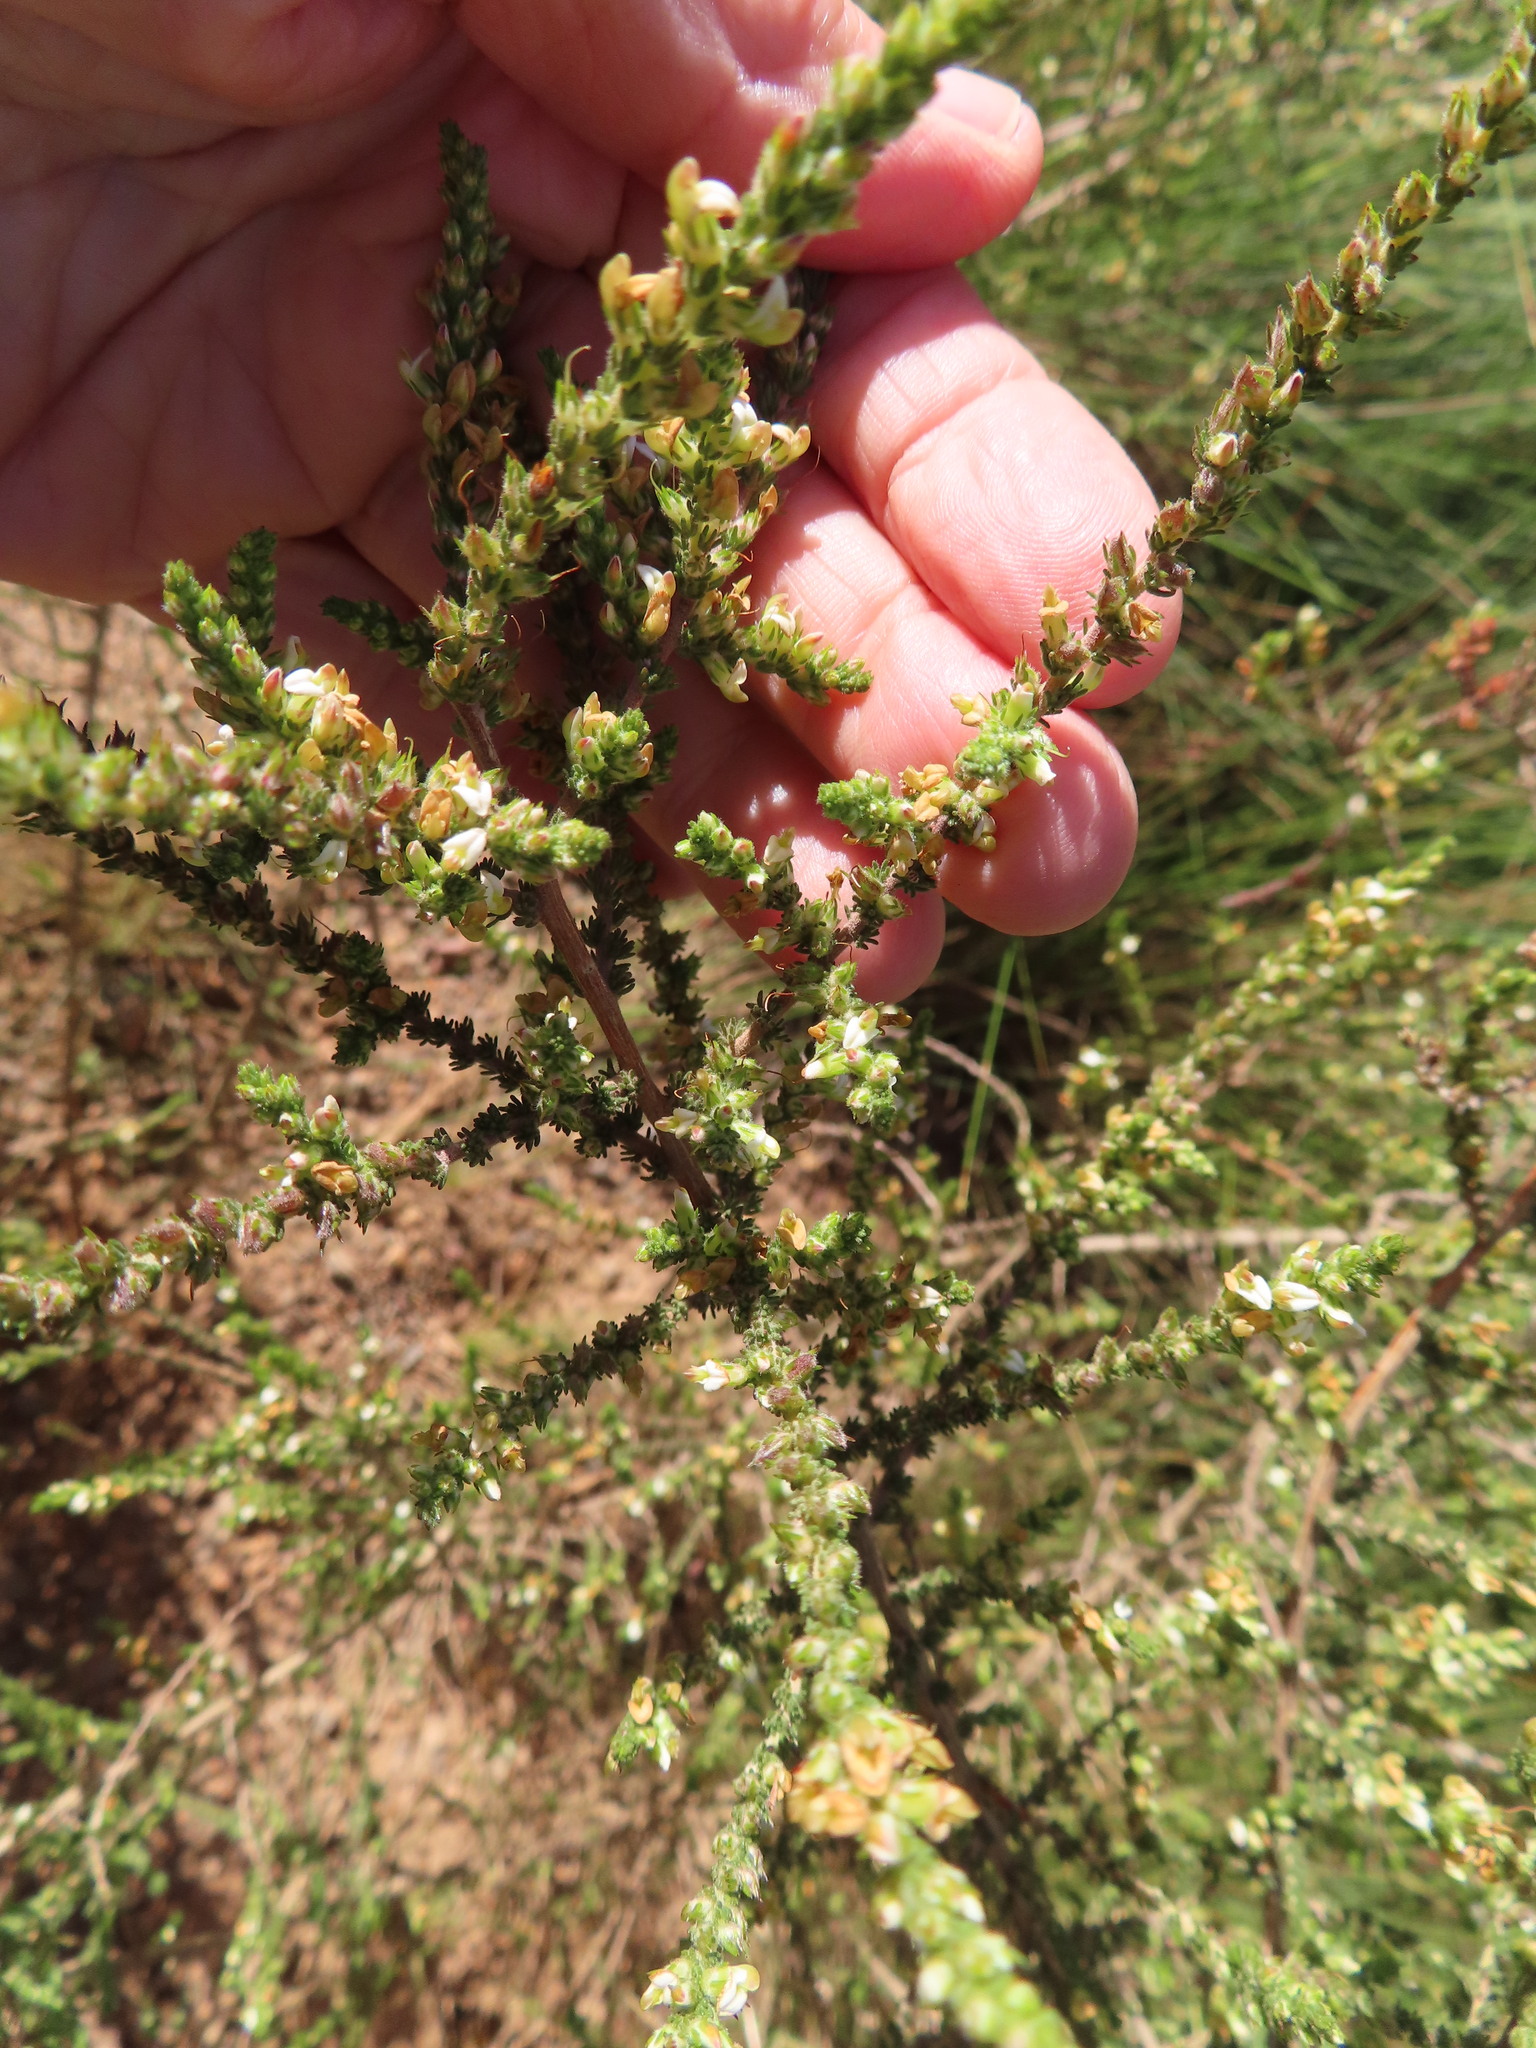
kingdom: Plantae
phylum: Tracheophyta
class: Magnoliopsida
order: Fabales
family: Fabaceae
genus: Aspalathus
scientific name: Aspalathus hispida
